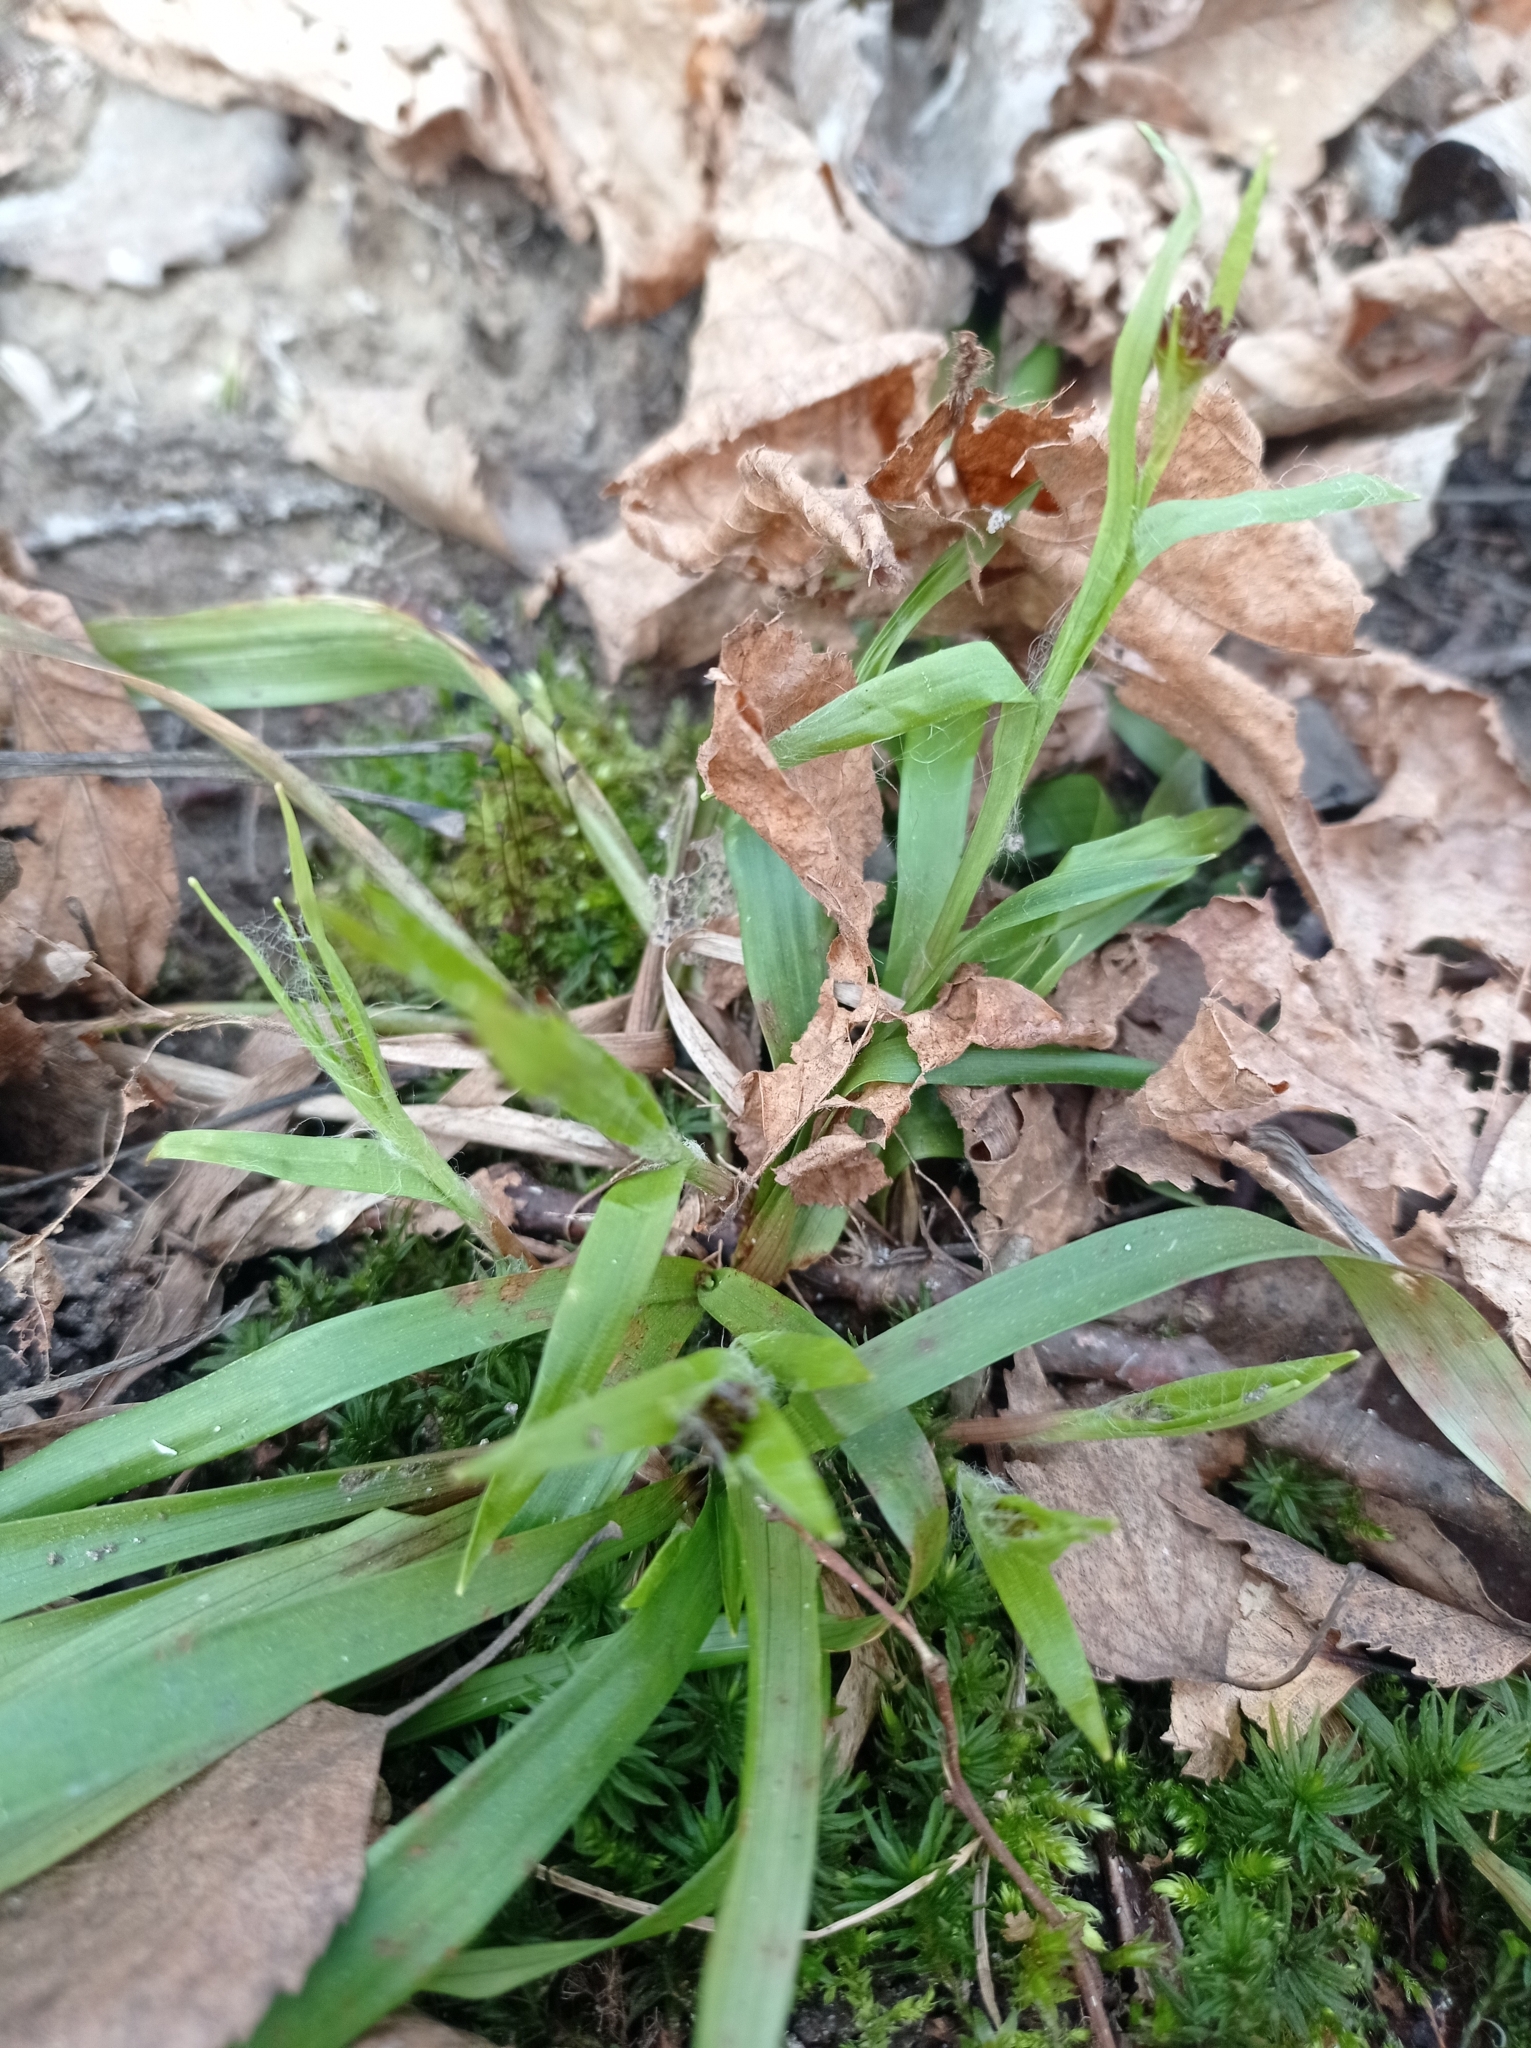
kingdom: Plantae
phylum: Tracheophyta
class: Liliopsida
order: Poales
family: Juncaceae
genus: Luzula
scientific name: Luzula pilosa
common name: Hairy wood-rush
